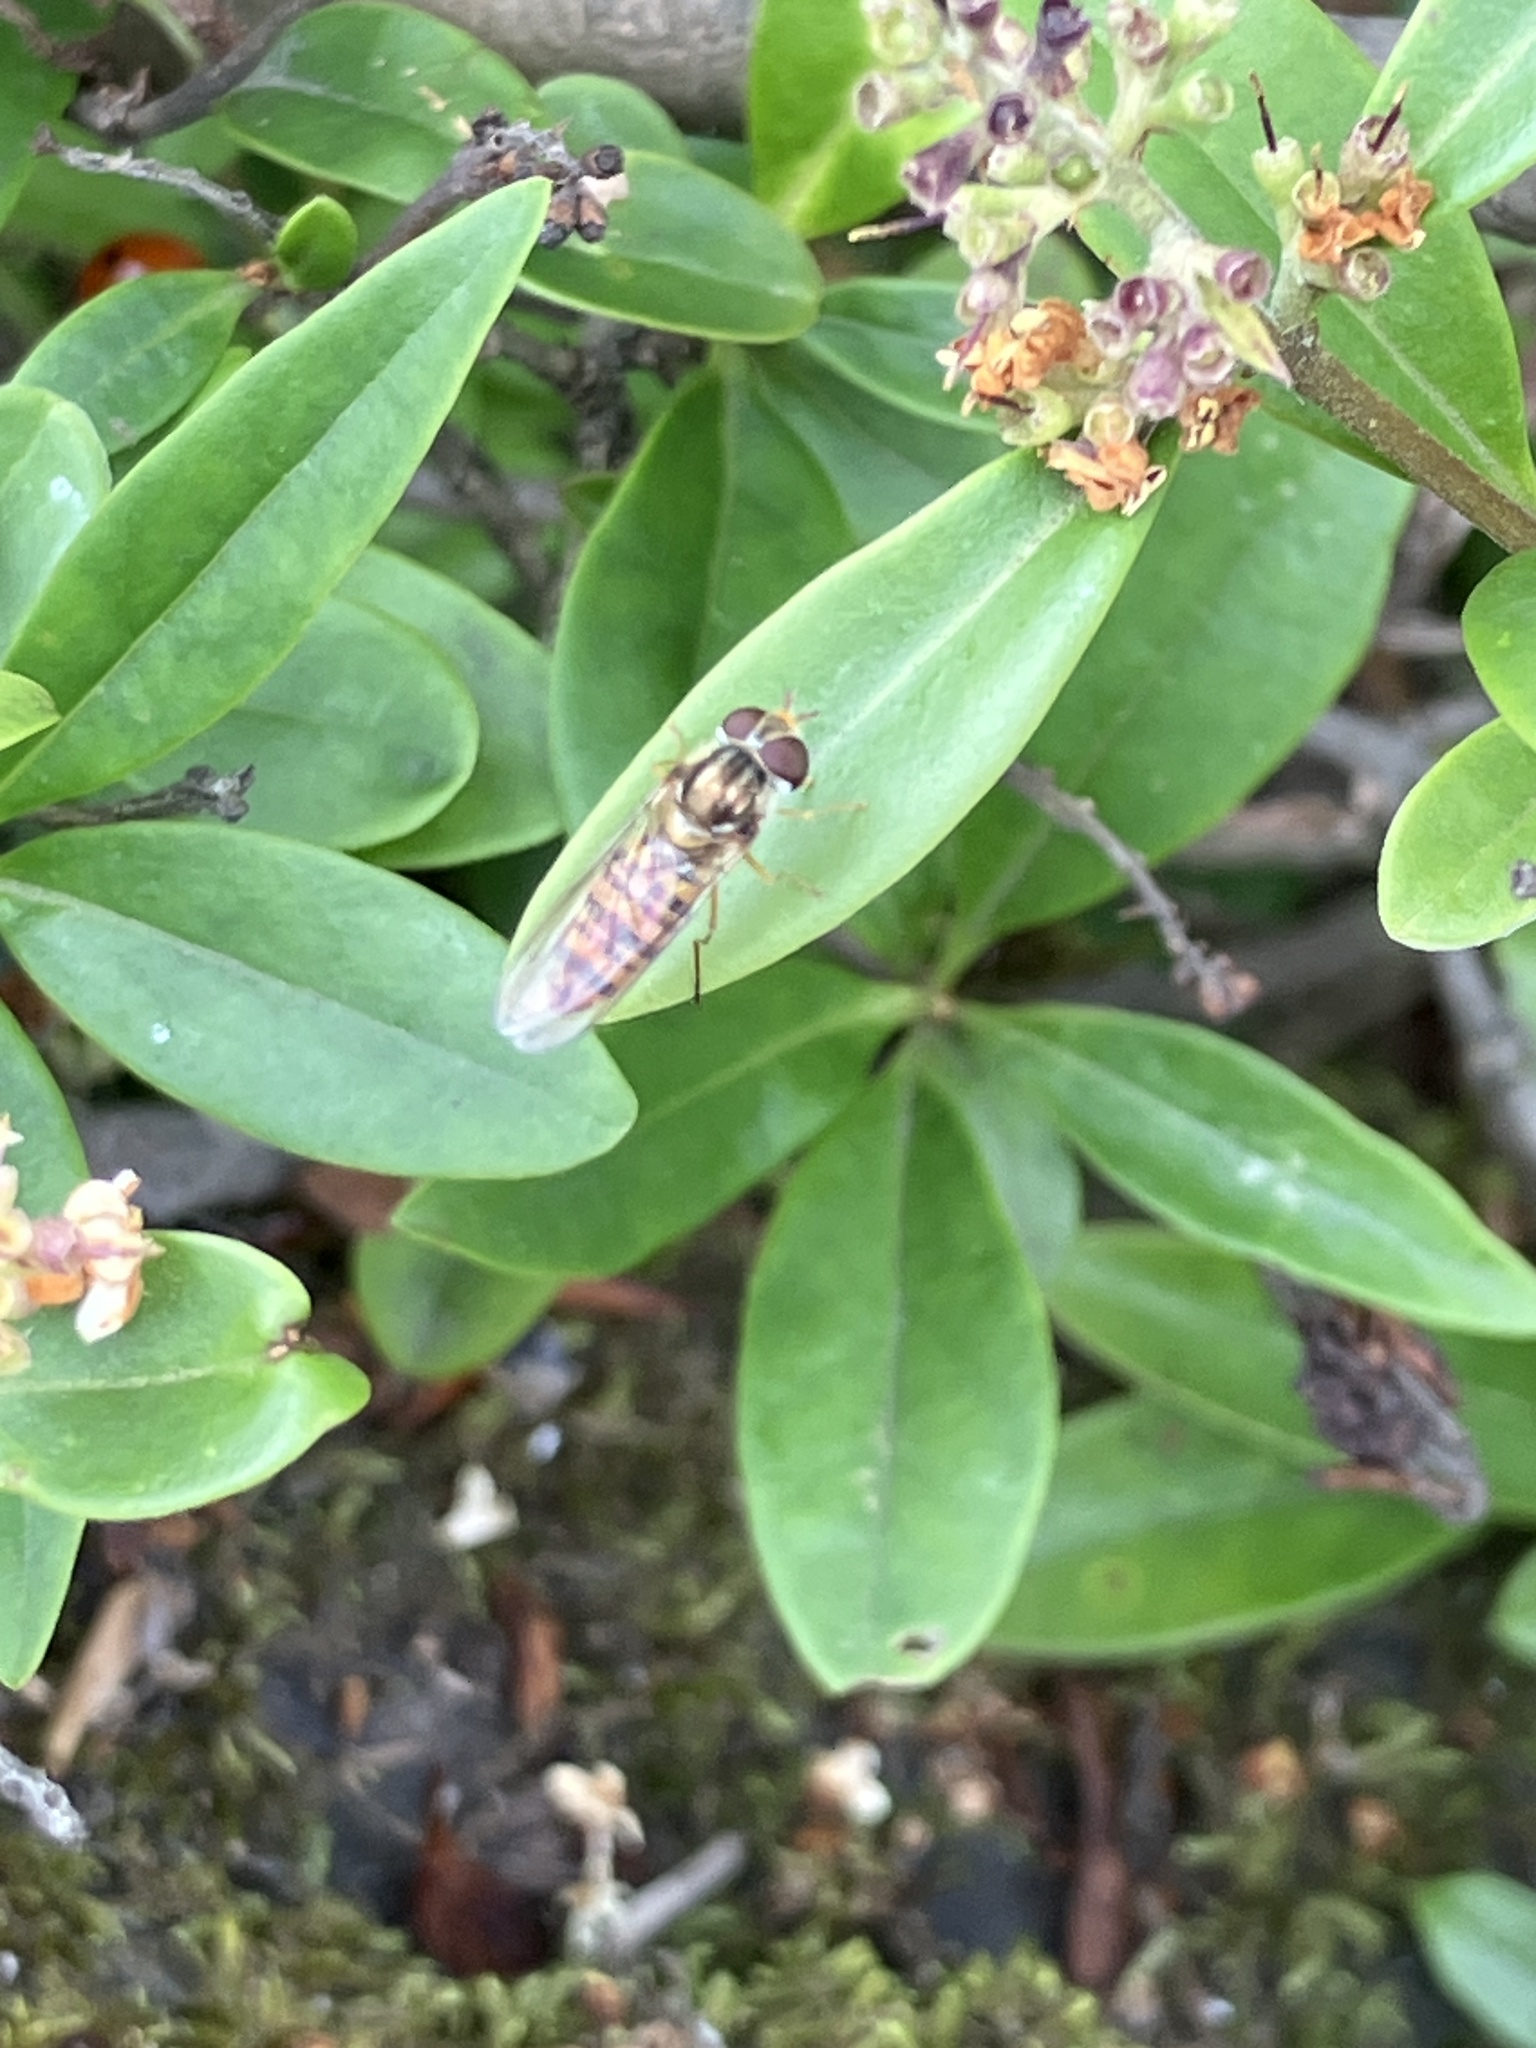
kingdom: Animalia
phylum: Arthropoda
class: Insecta
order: Diptera
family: Syrphidae
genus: Episyrphus
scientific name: Episyrphus balteatus
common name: Marmalade hoverfly
